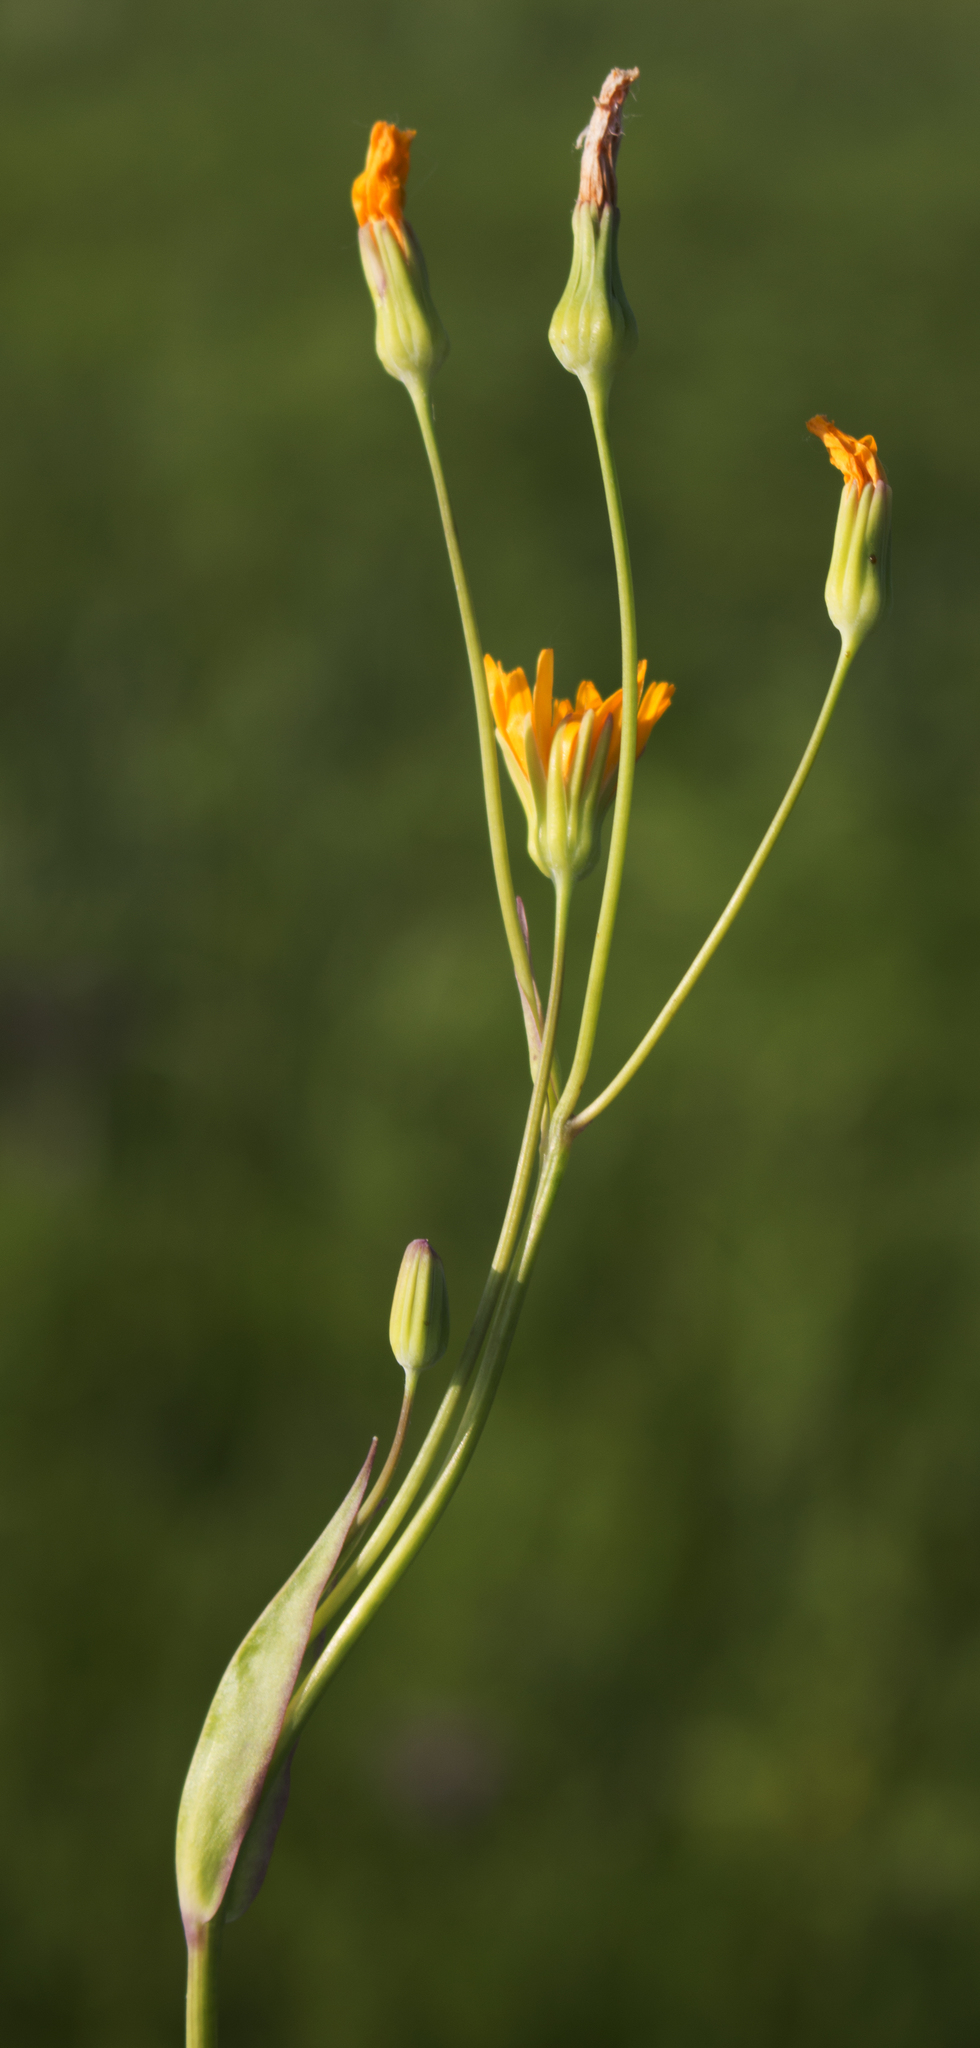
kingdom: Plantae
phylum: Tracheophyta
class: Magnoliopsida
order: Asterales
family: Asteraceae
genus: Krigia
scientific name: Krigia biflora
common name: Orange dwarf-dandelion
